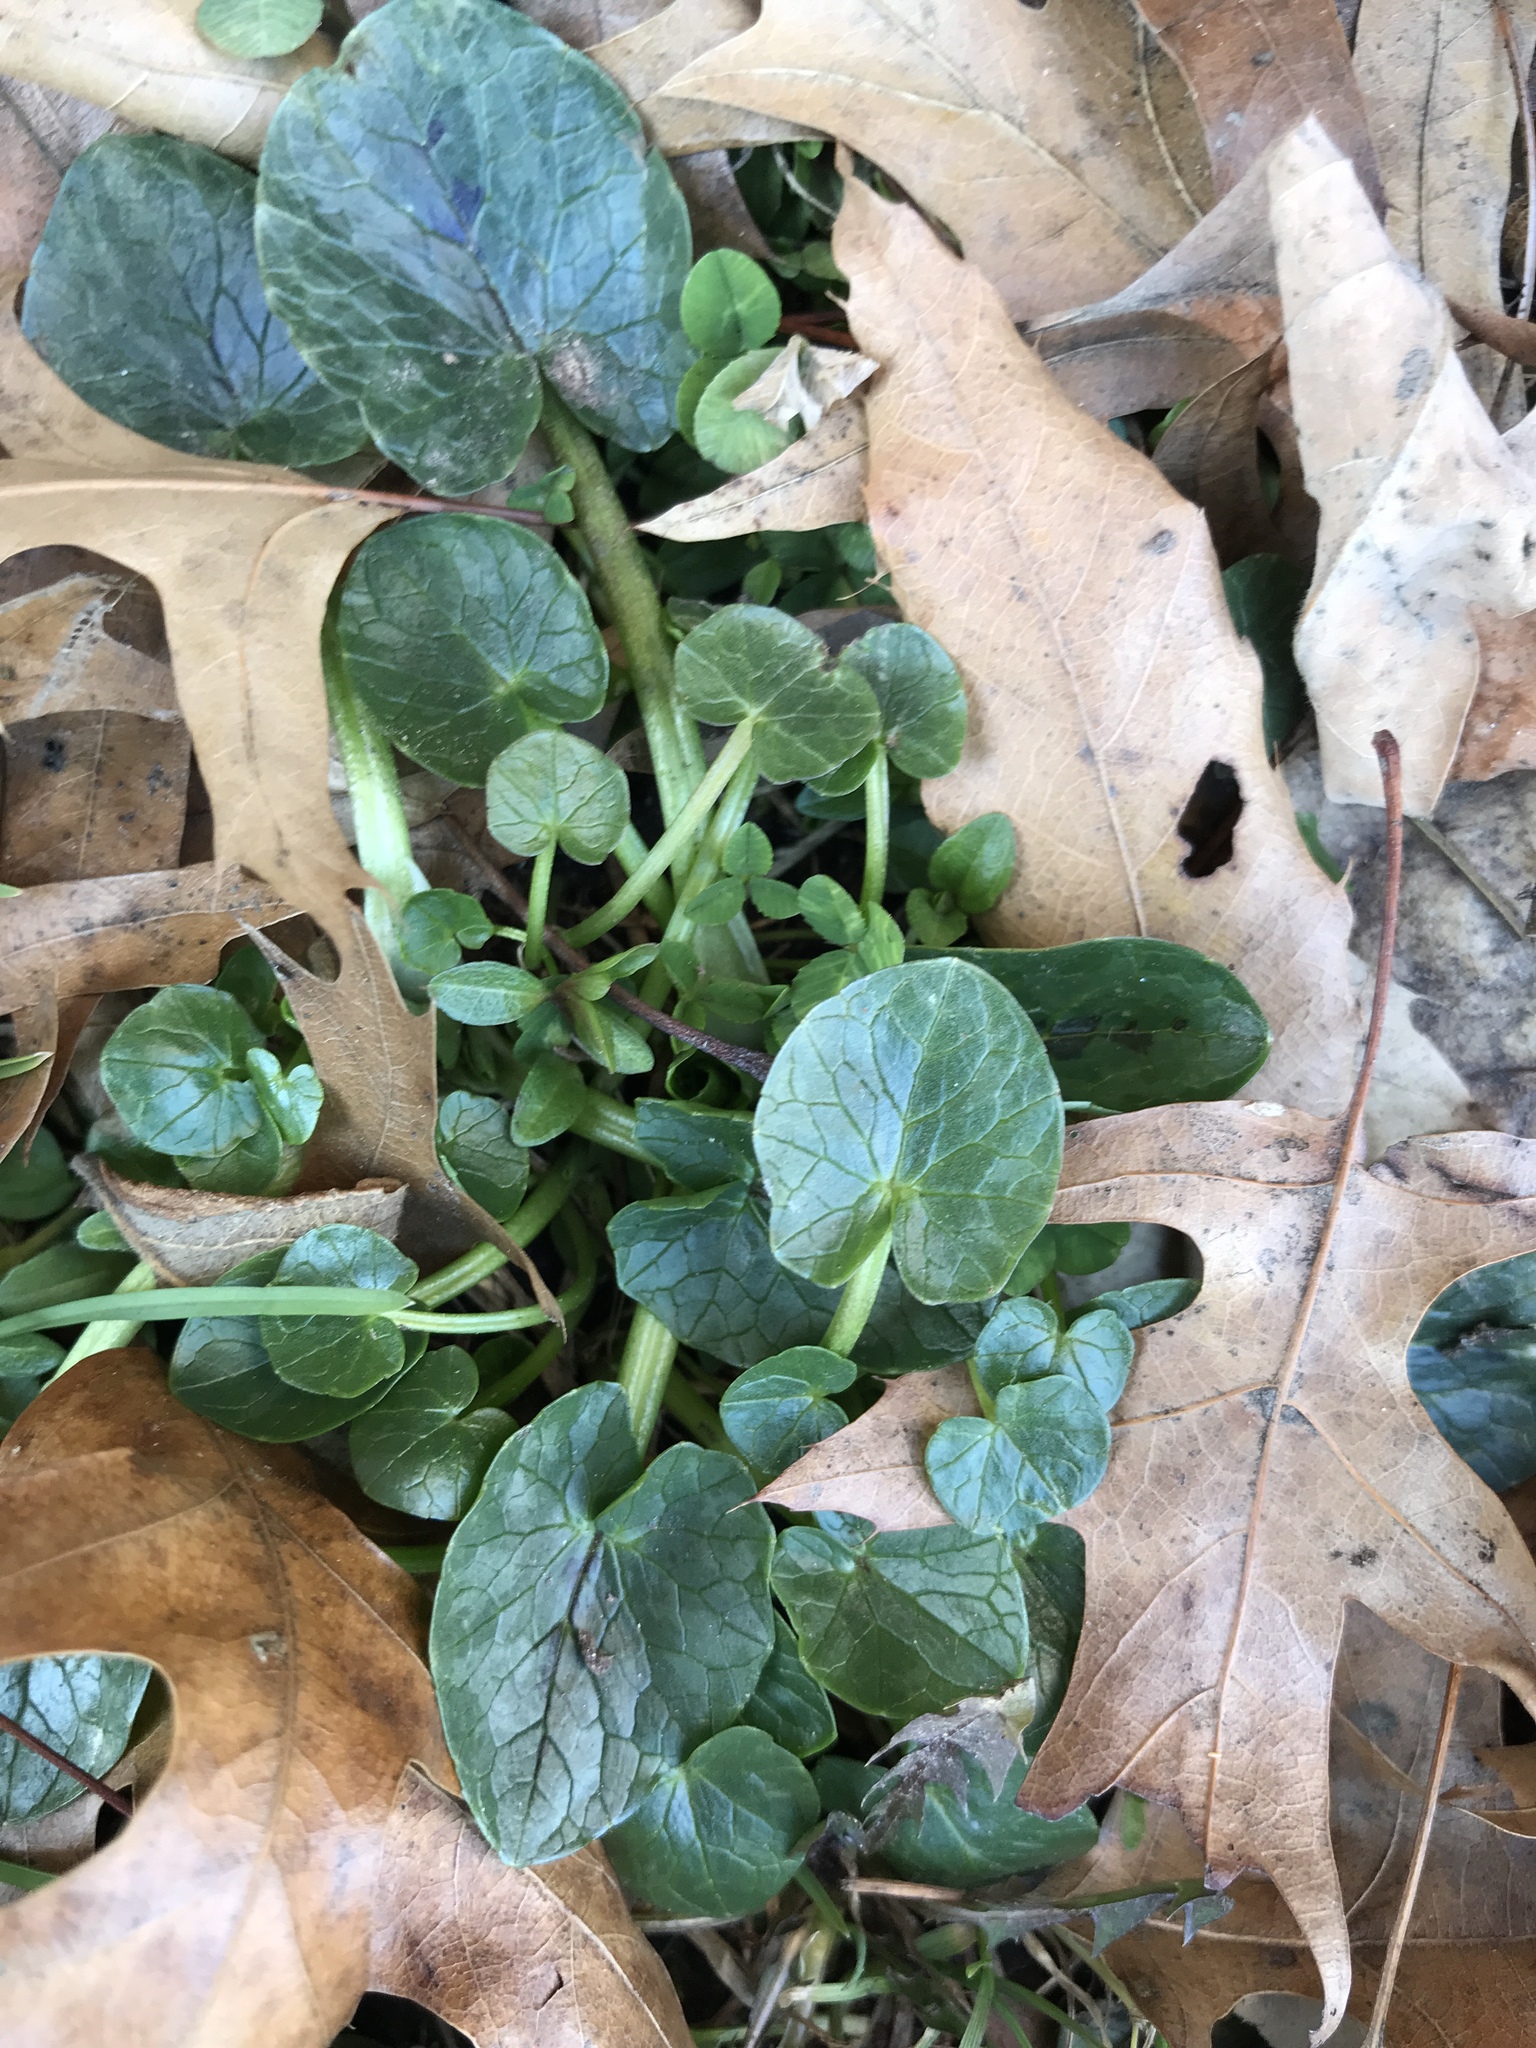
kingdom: Plantae
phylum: Tracheophyta
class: Magnoliopsida
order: Ranunculales
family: Ranunculaceae
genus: Ficaria
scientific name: Ficaria verna
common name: Lesser celandine
